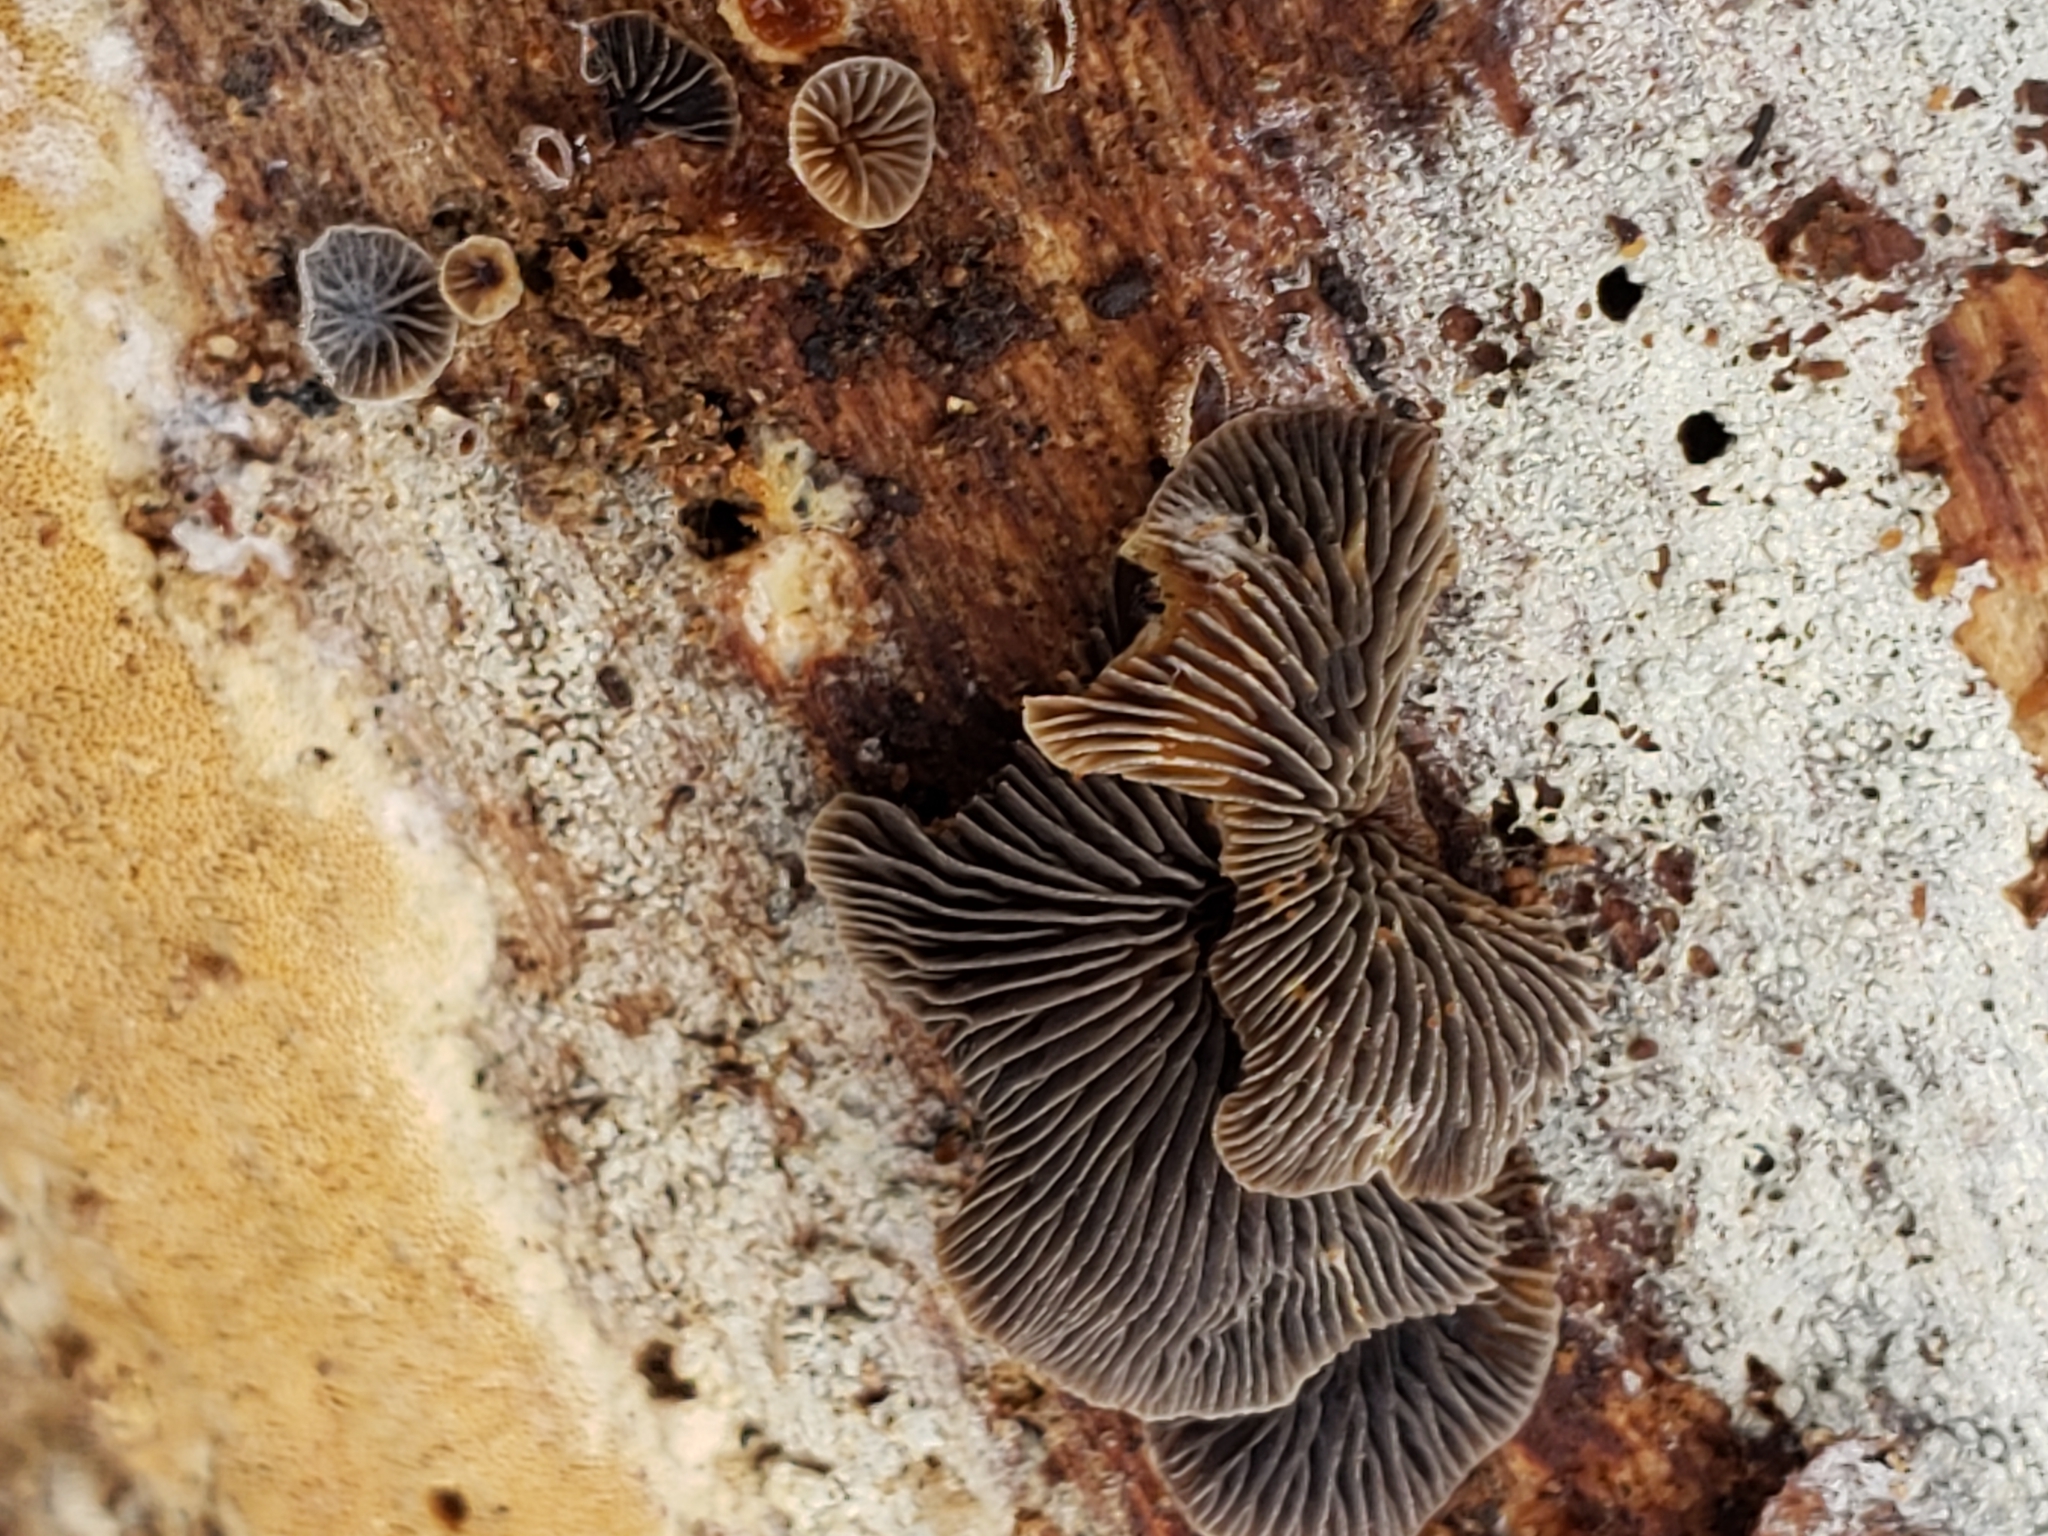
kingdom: Fungi
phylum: Basidiomycota
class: Agaricomycetes
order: Agaricales
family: Pleurotaceae
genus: Resupinatus
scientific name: Resupinatus applicatus
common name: Smoked oysterling
